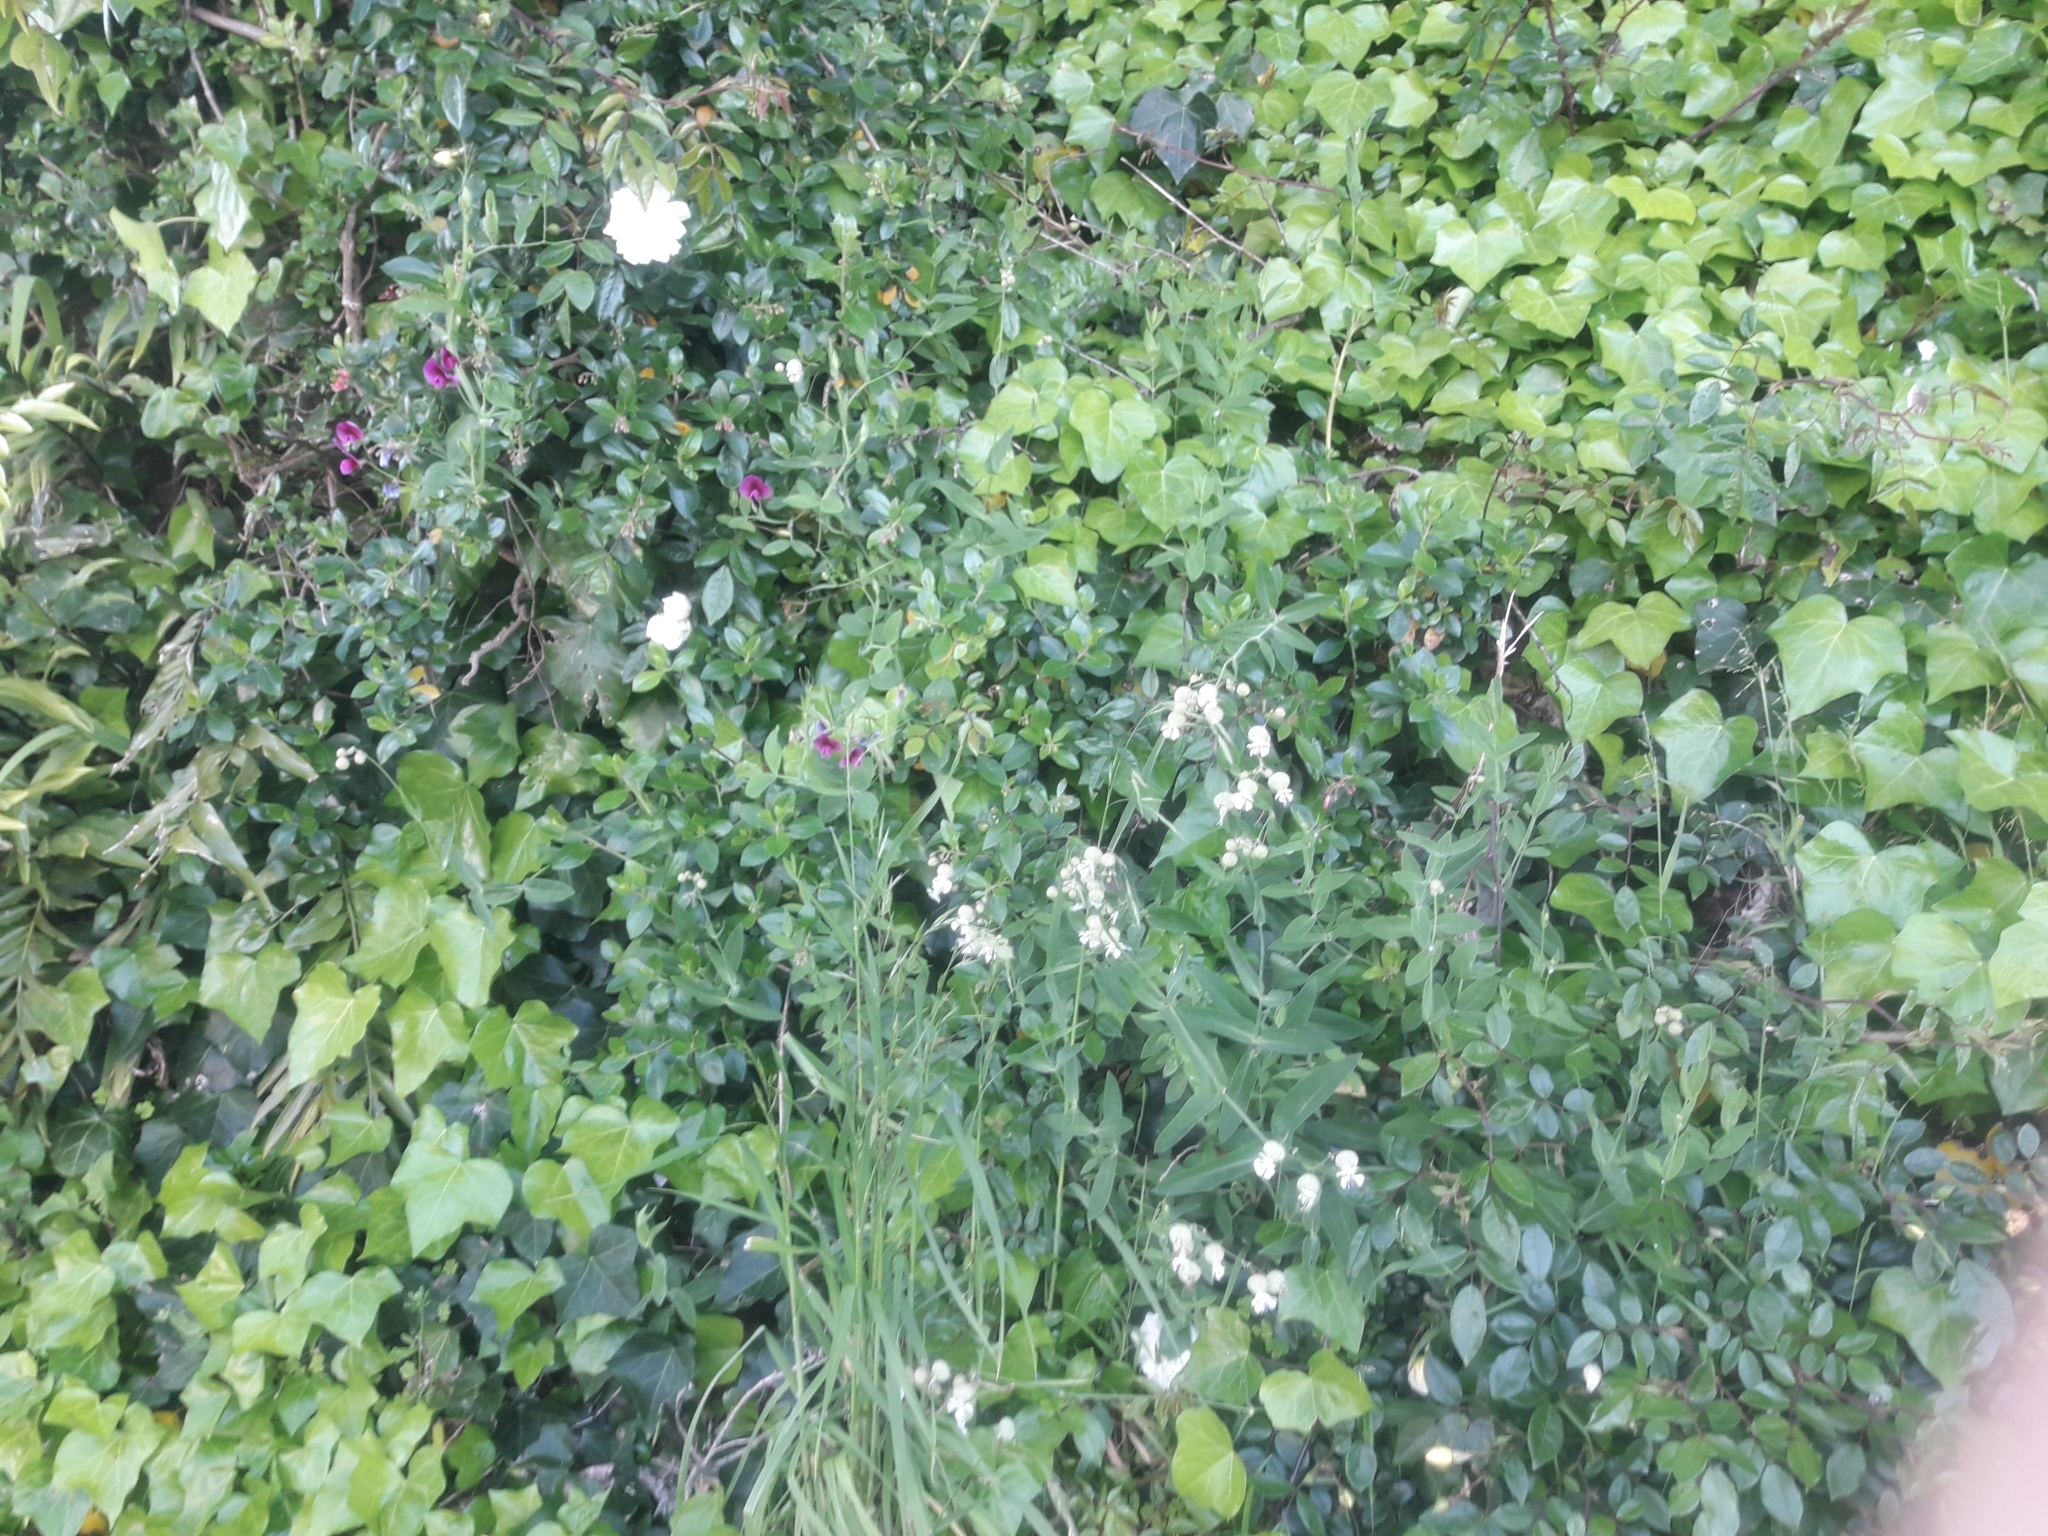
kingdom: Plantae
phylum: Tracheophyta
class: Magnoliopsida
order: Caryophyllales
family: Caryophyllaceae
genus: Silene
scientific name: Silene vulgaris
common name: Bladder campion
